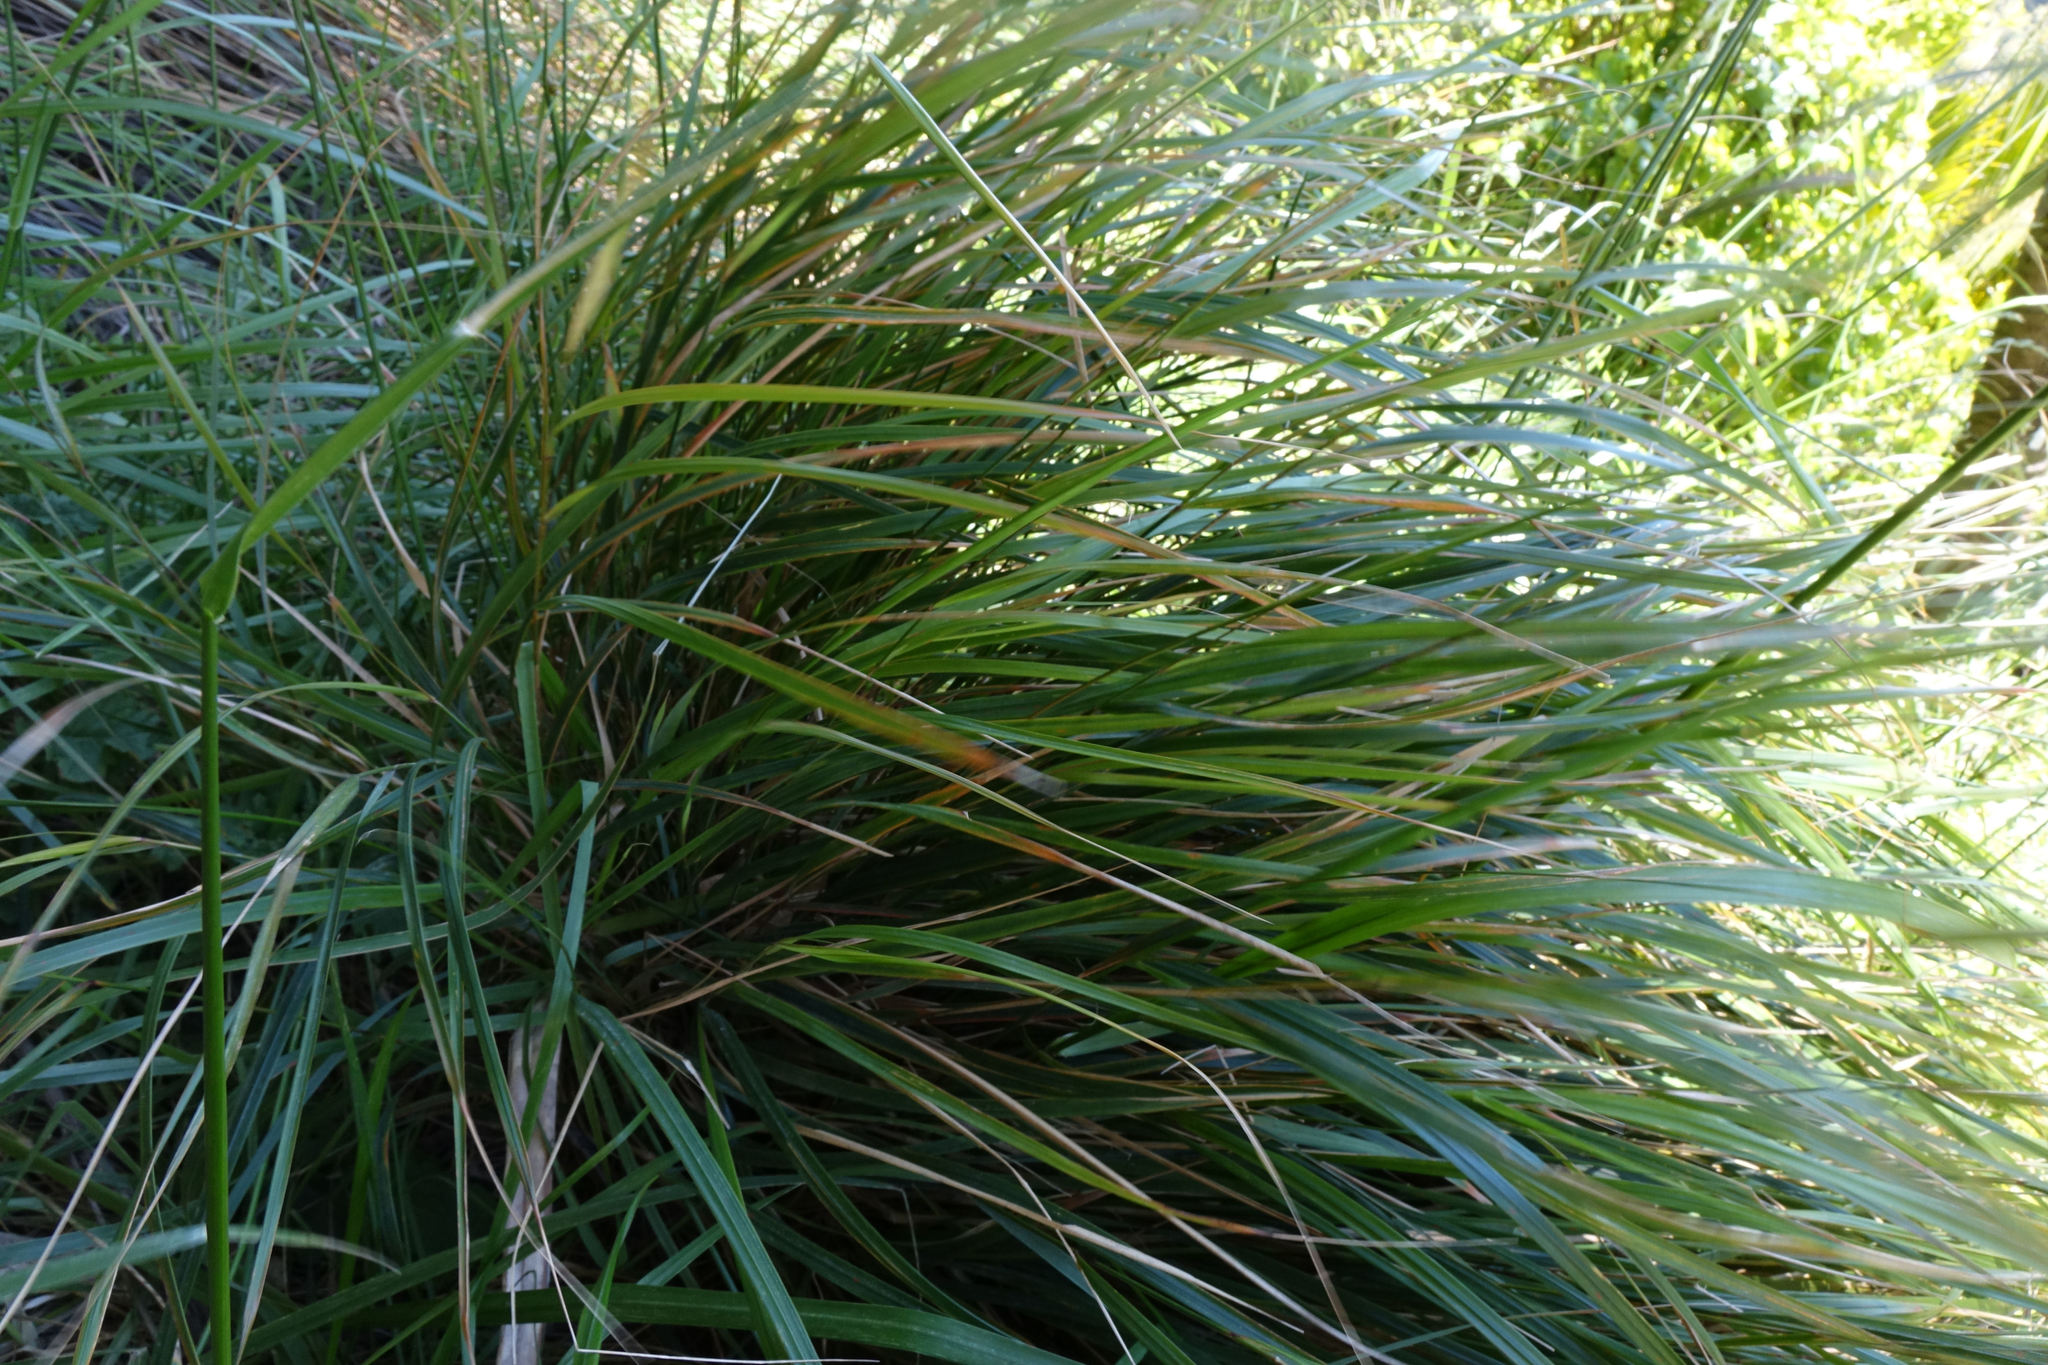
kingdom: Plantae
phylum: Tracheophyta
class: Liliopsida
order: Poales
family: Poaceae
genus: Anemanthele
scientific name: Anemanthele lessoniana
